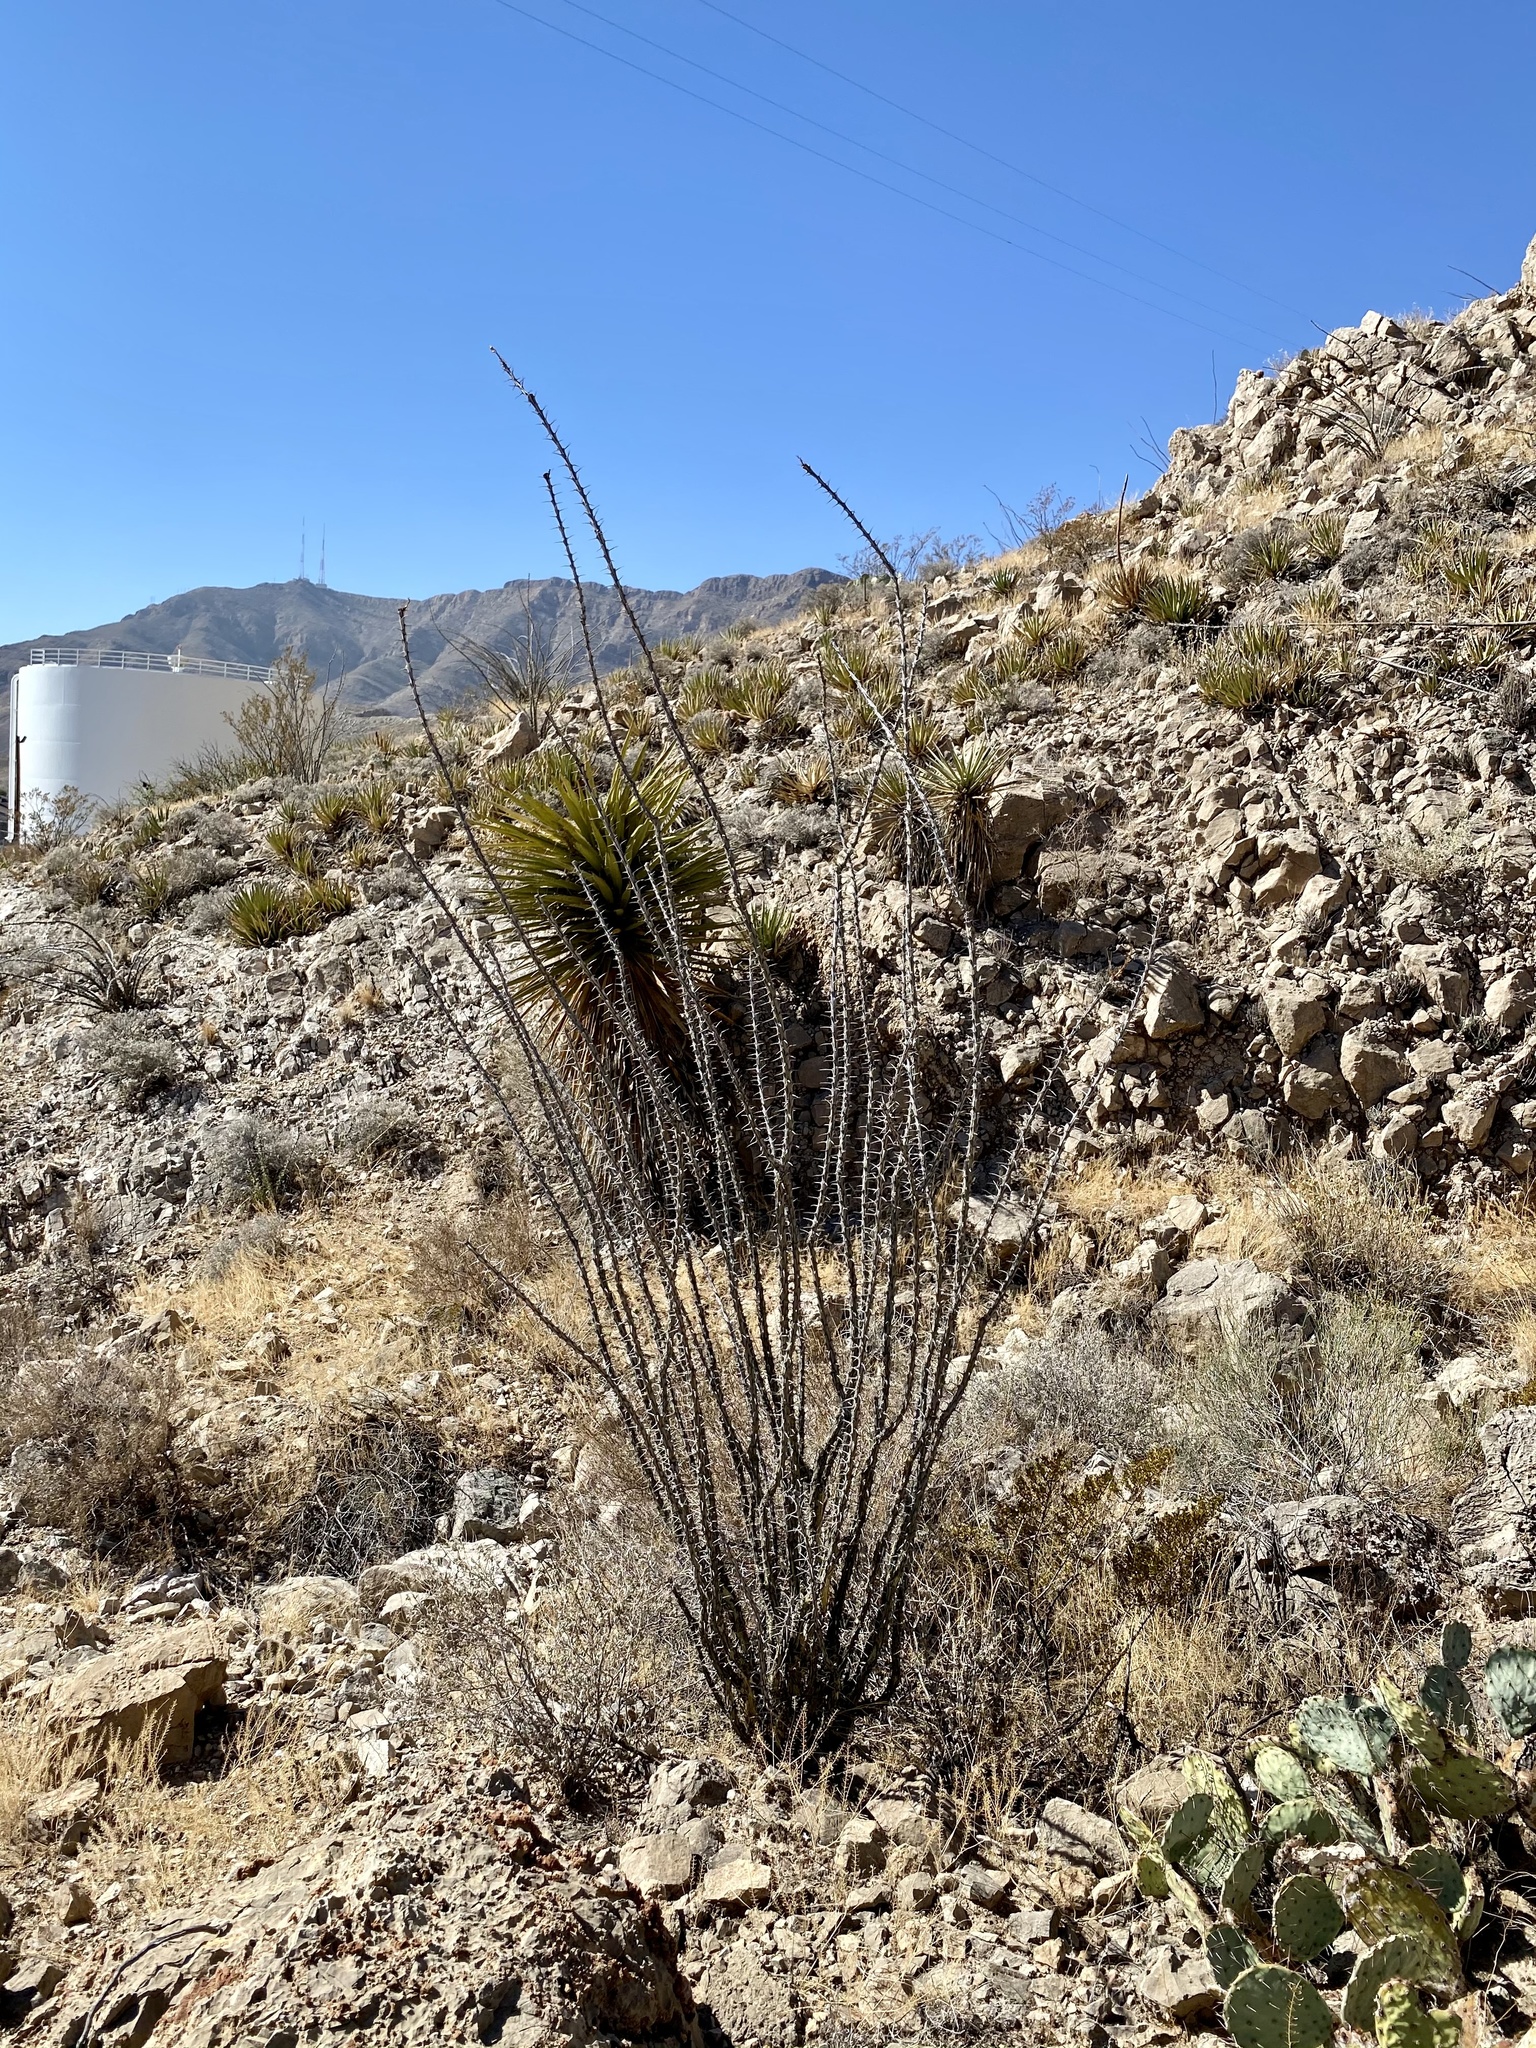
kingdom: Plantae
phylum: Tracheophyta
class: Magnoliopsida
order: Ericales
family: Fouquieriaceae
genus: Fouquieria
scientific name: Fouquieria splendens
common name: Vine-cactus
